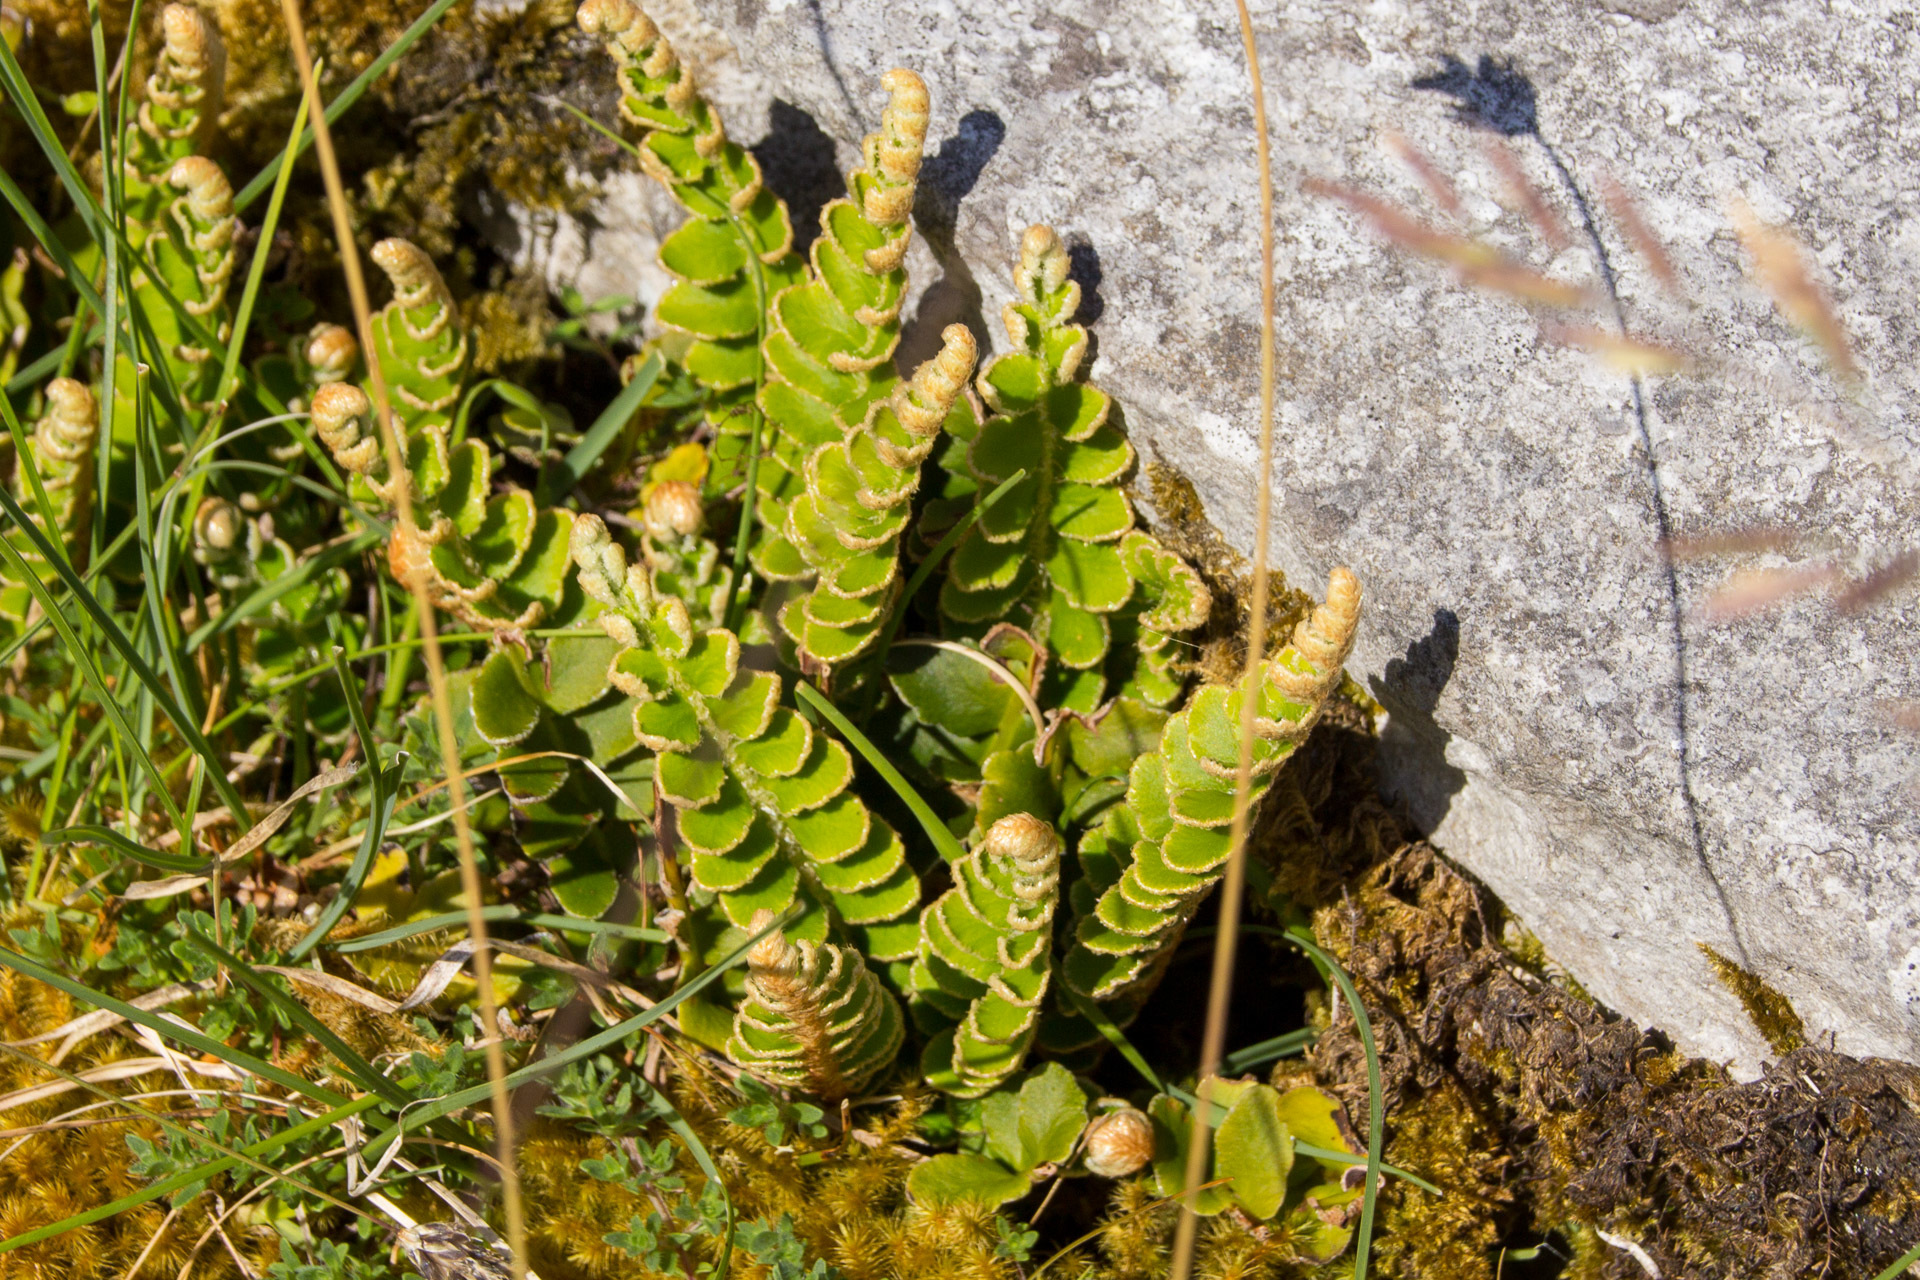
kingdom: Plantae
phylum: Tracheophyta
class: Polypodiopsida
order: Polypodiales
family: Aspleniaceae
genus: Asplenium
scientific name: Asplenium ceterach
